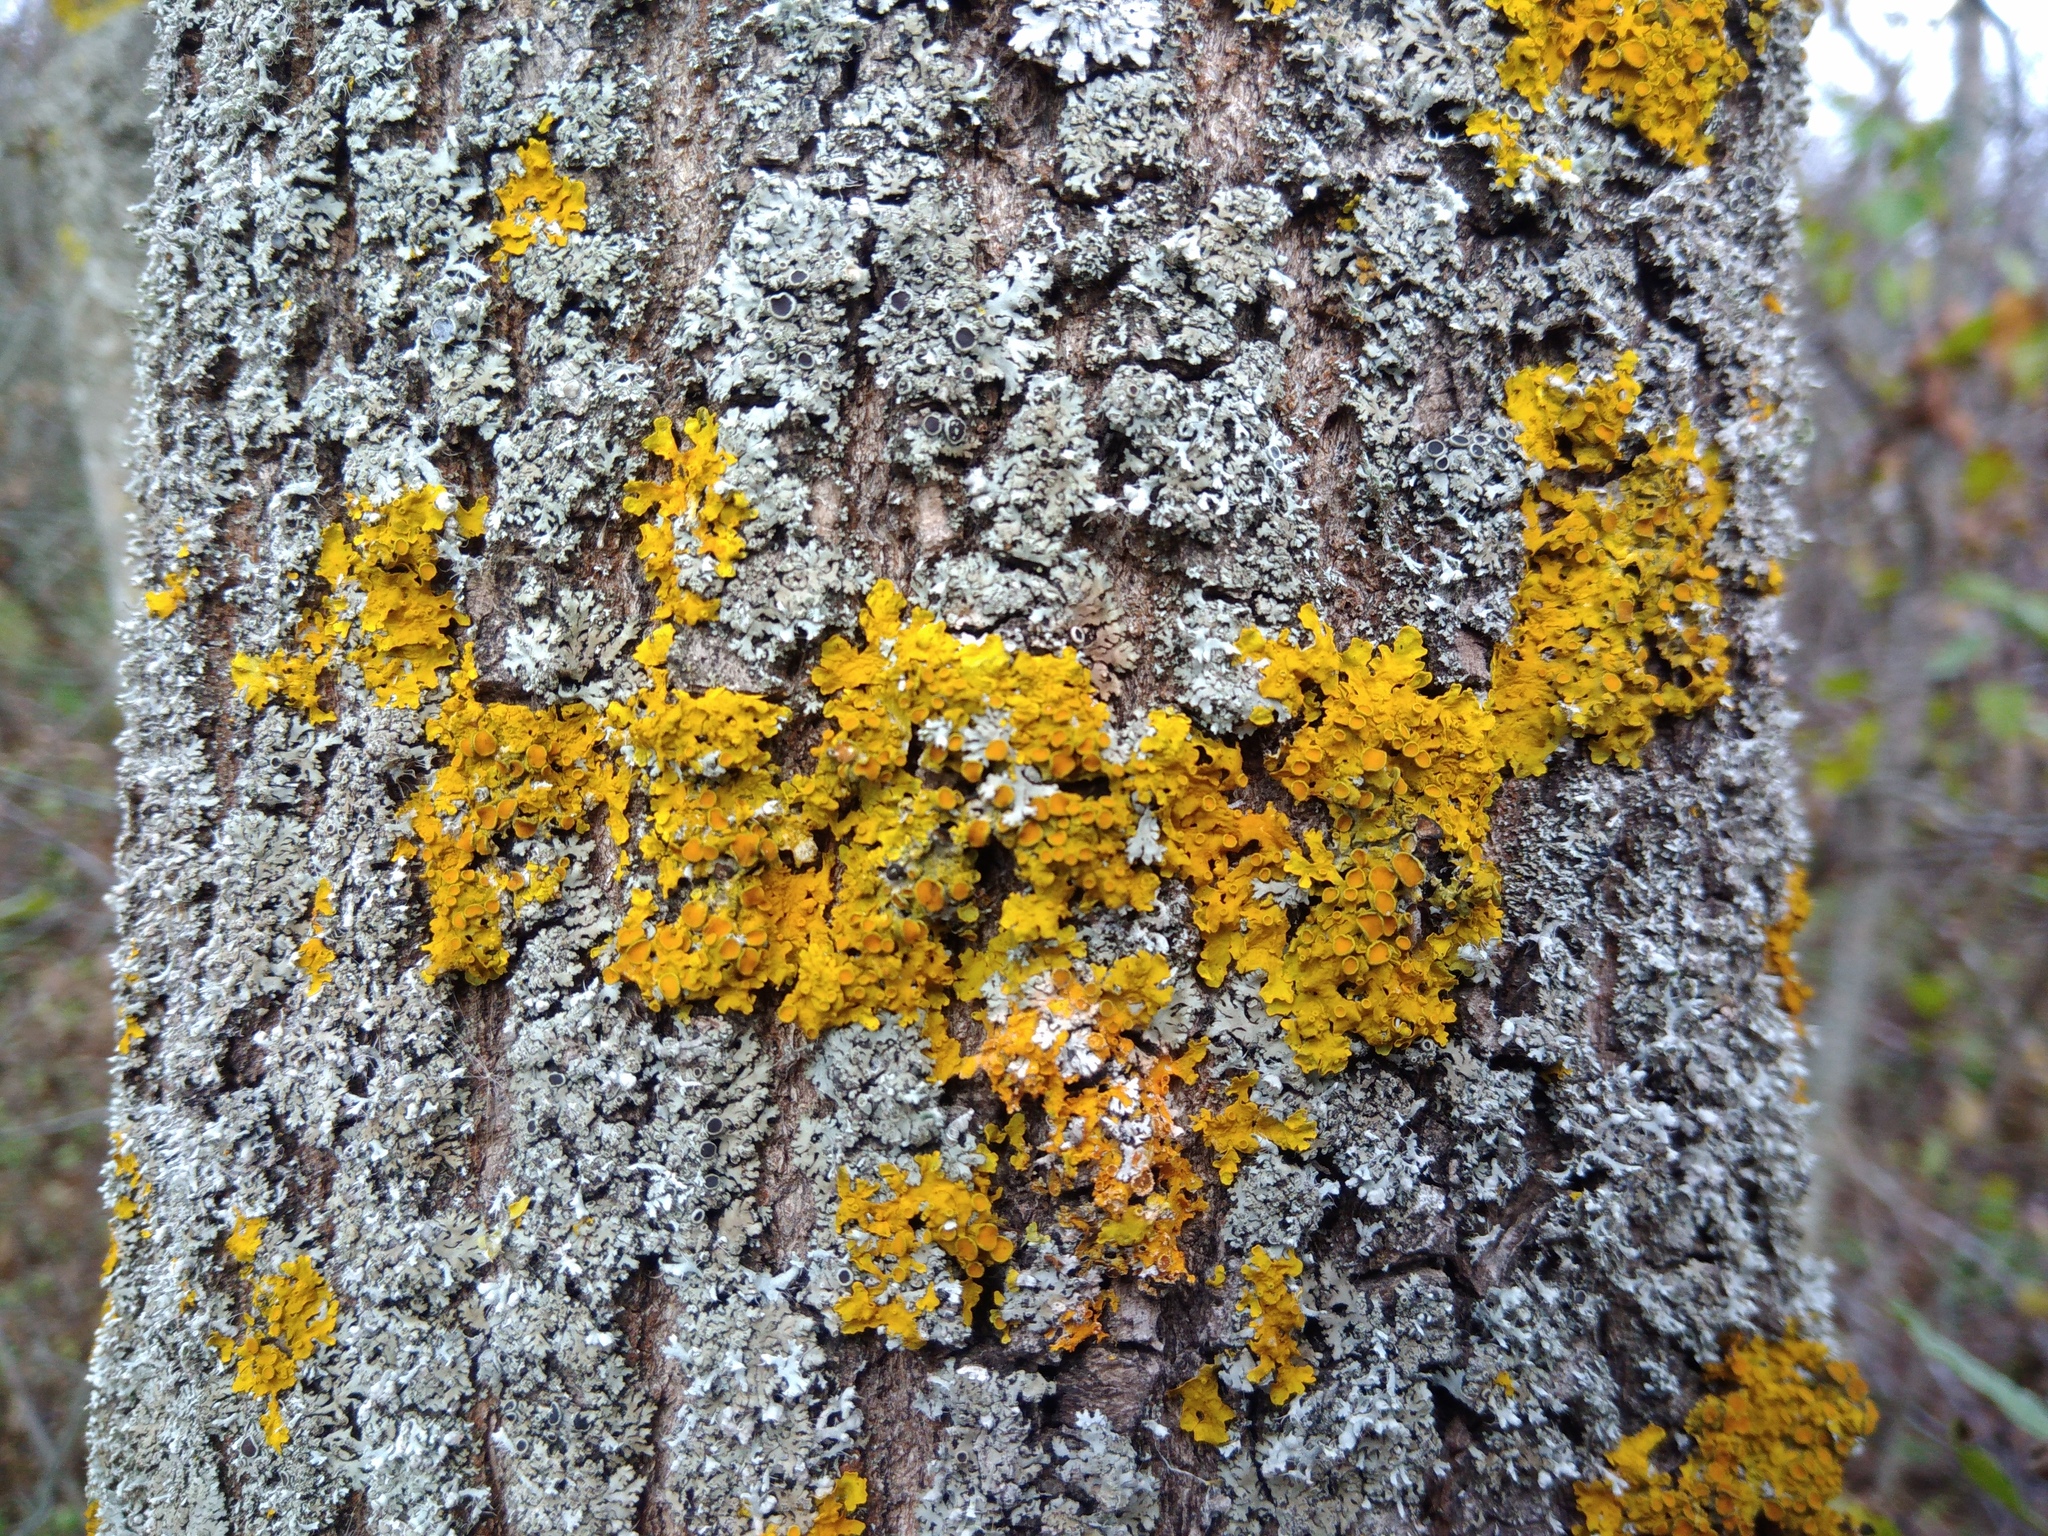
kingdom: Fungi
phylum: Ascomycota
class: Lecanoromycetes
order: Teloschistales
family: Teloschistaceae
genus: Xanthoria
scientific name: Xanthoria parietina
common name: Common orange lichen
